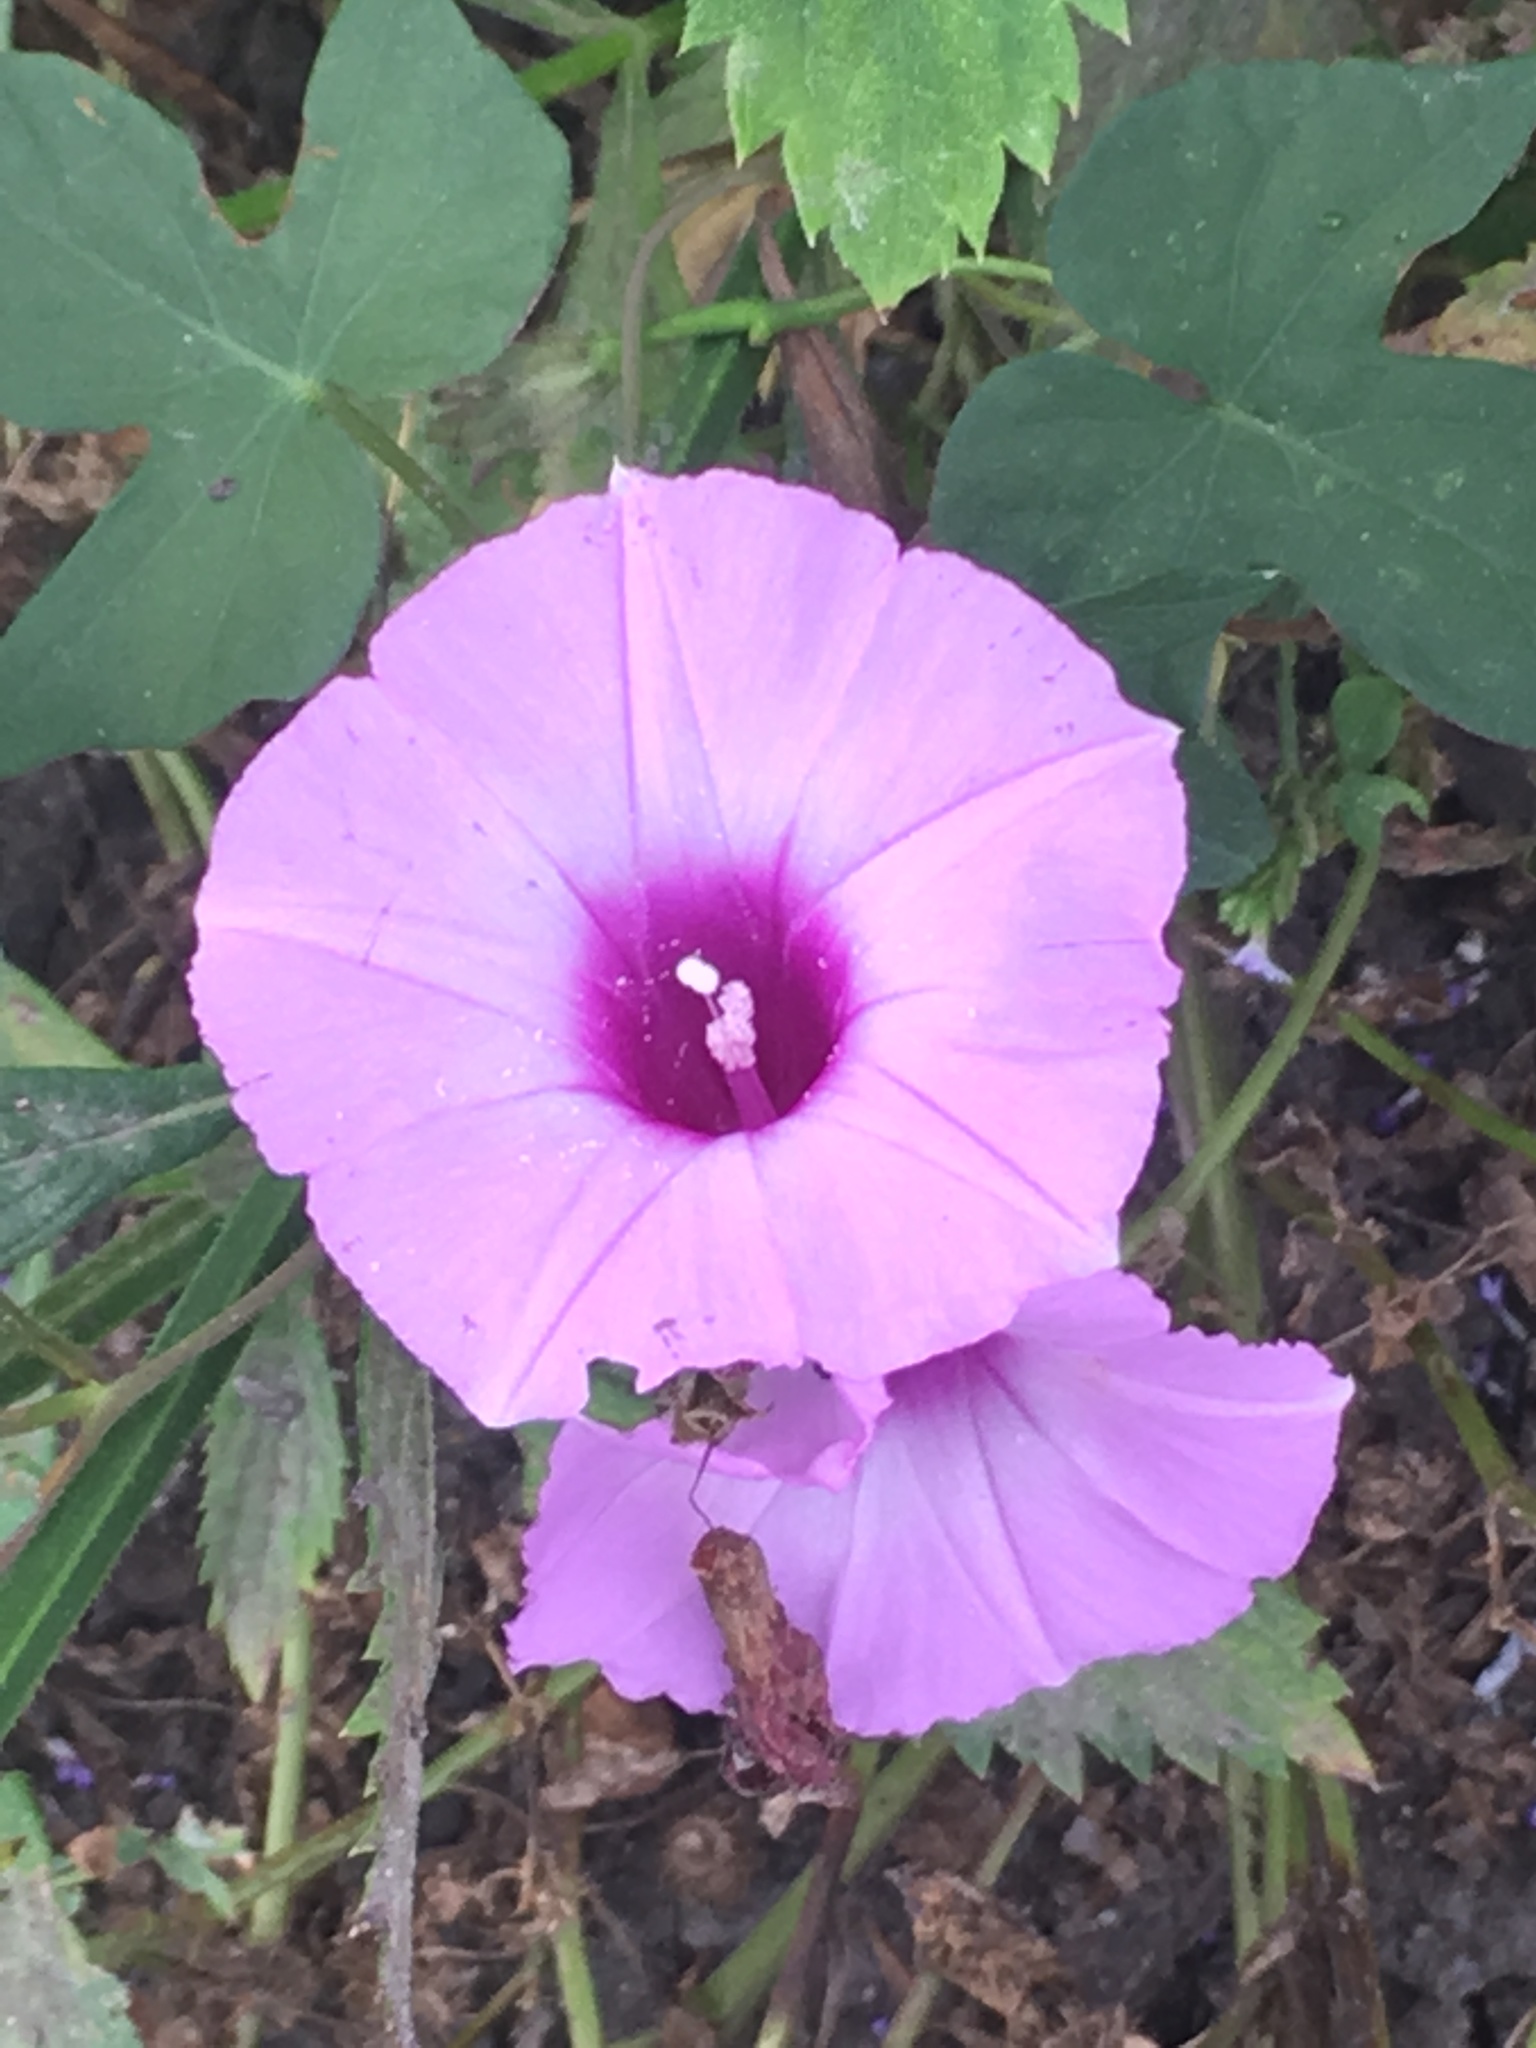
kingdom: Plantae
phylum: Tracheophyta
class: Magnoliopsida
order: Solanales
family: Convolvulaceae
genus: Ipomoea
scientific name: Ipomoea cordatotriloba
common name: Cotton morning glory
